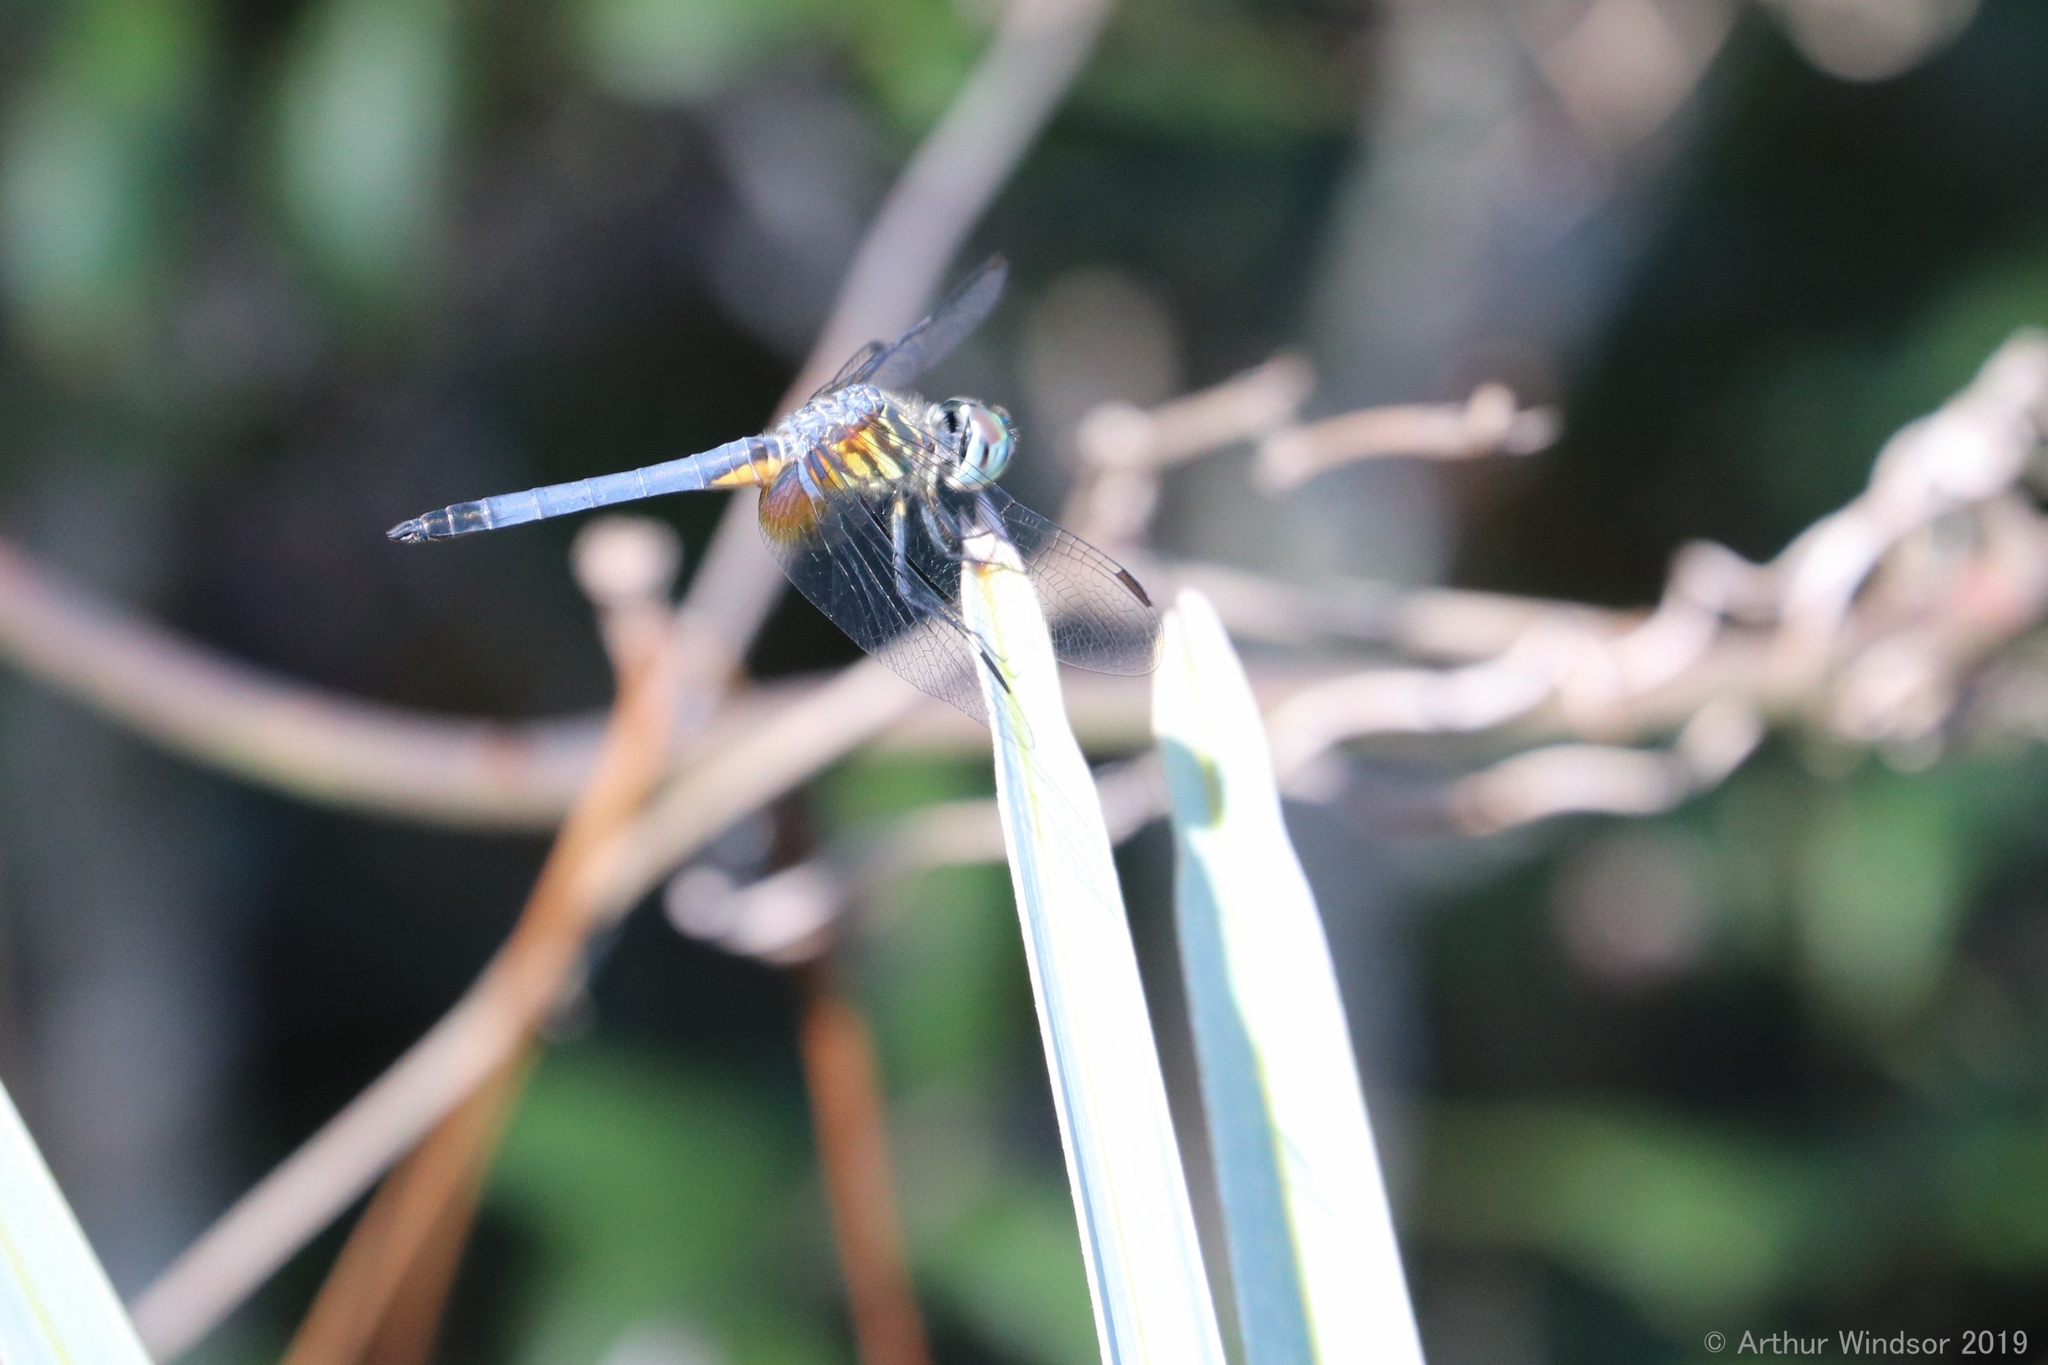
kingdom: Animalia
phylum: Arthropoda
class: Insecta
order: Odonata
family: Libellulidae
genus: Pachydiplax
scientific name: Pachydiplax longipennis
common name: Blue dasher
